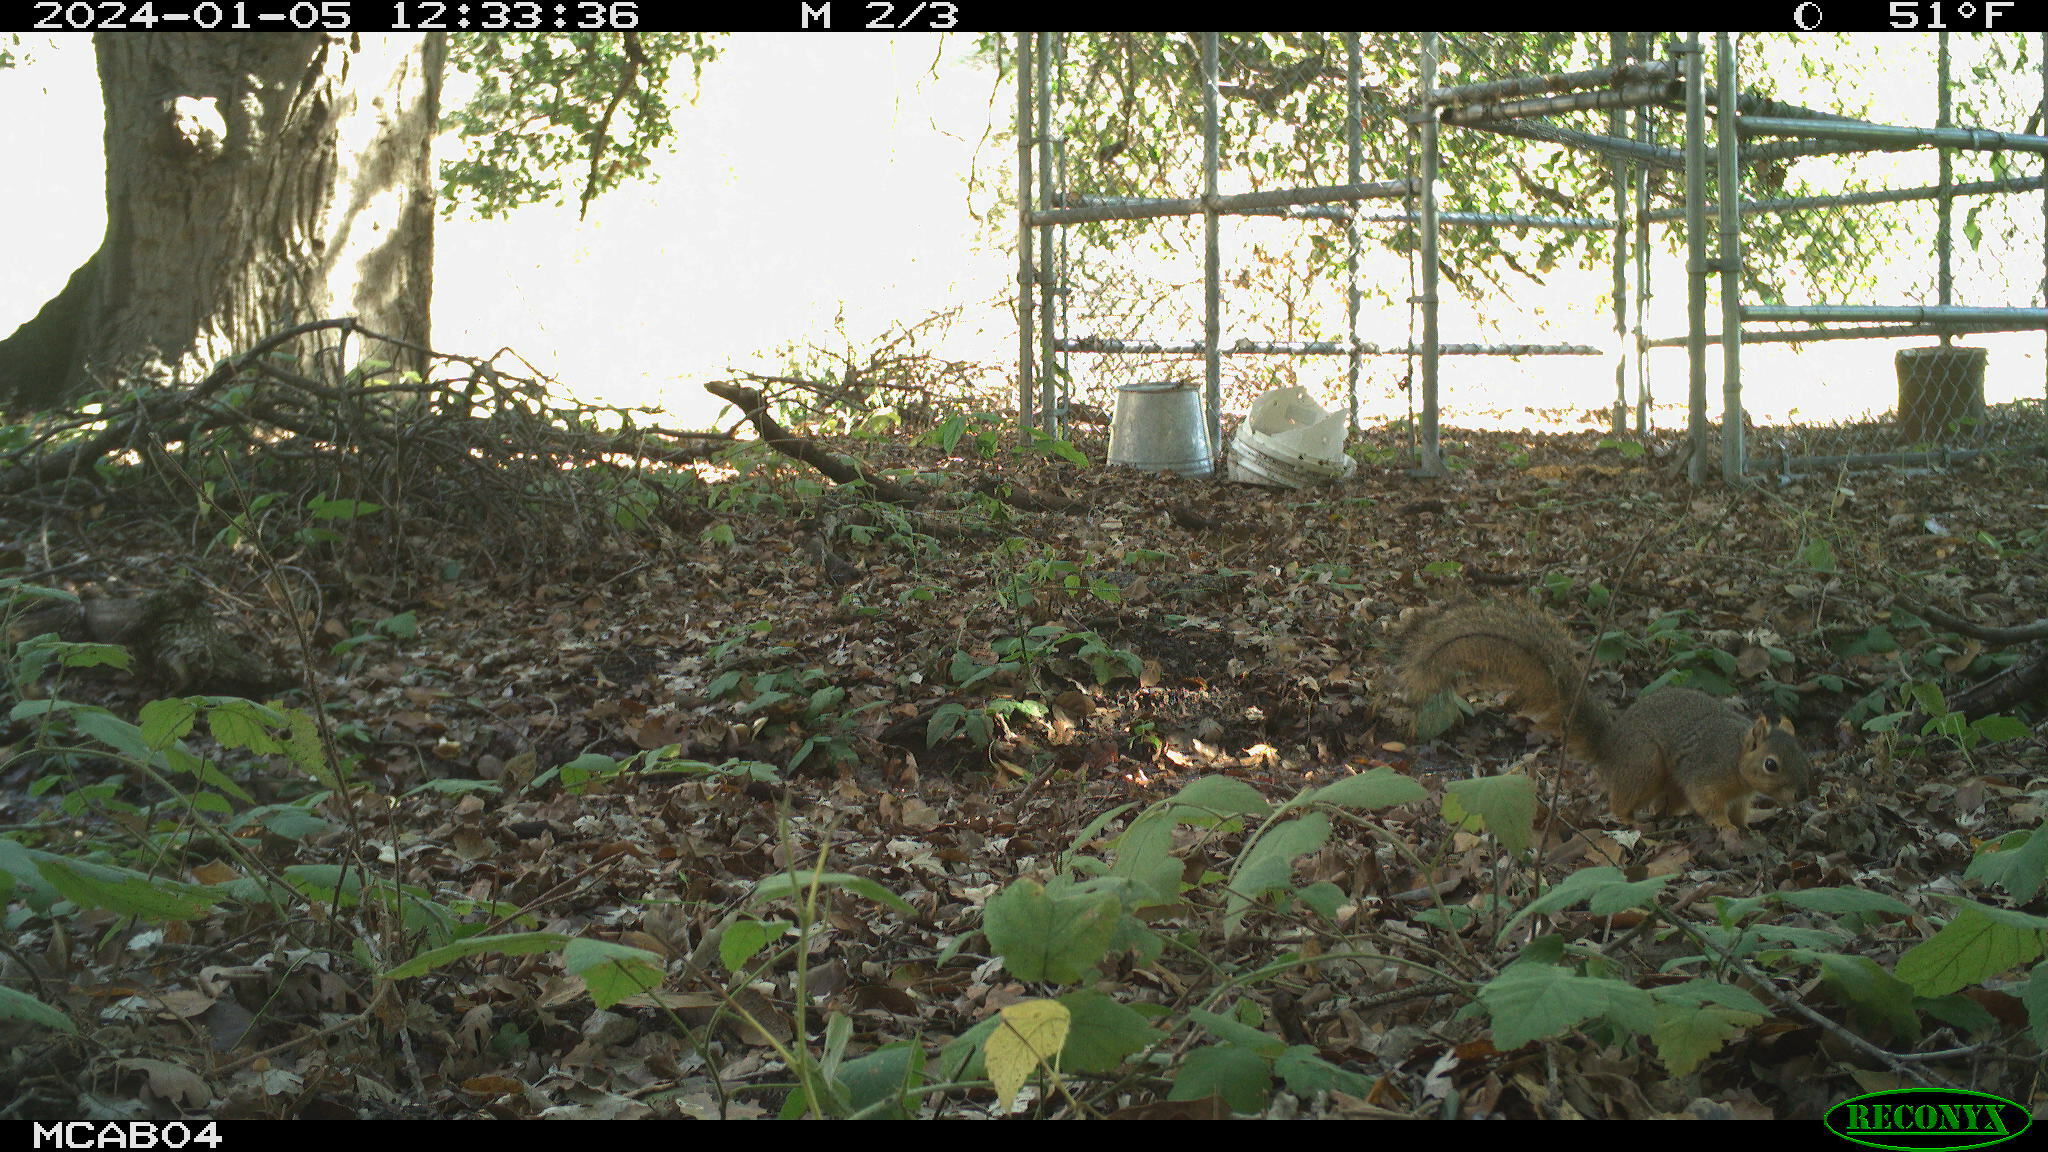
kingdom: Animalia
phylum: Chordata
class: Mammalia
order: Rodentia
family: Sciuridae
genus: Sciurus
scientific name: Sciurus niger
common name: Fox squirrel
